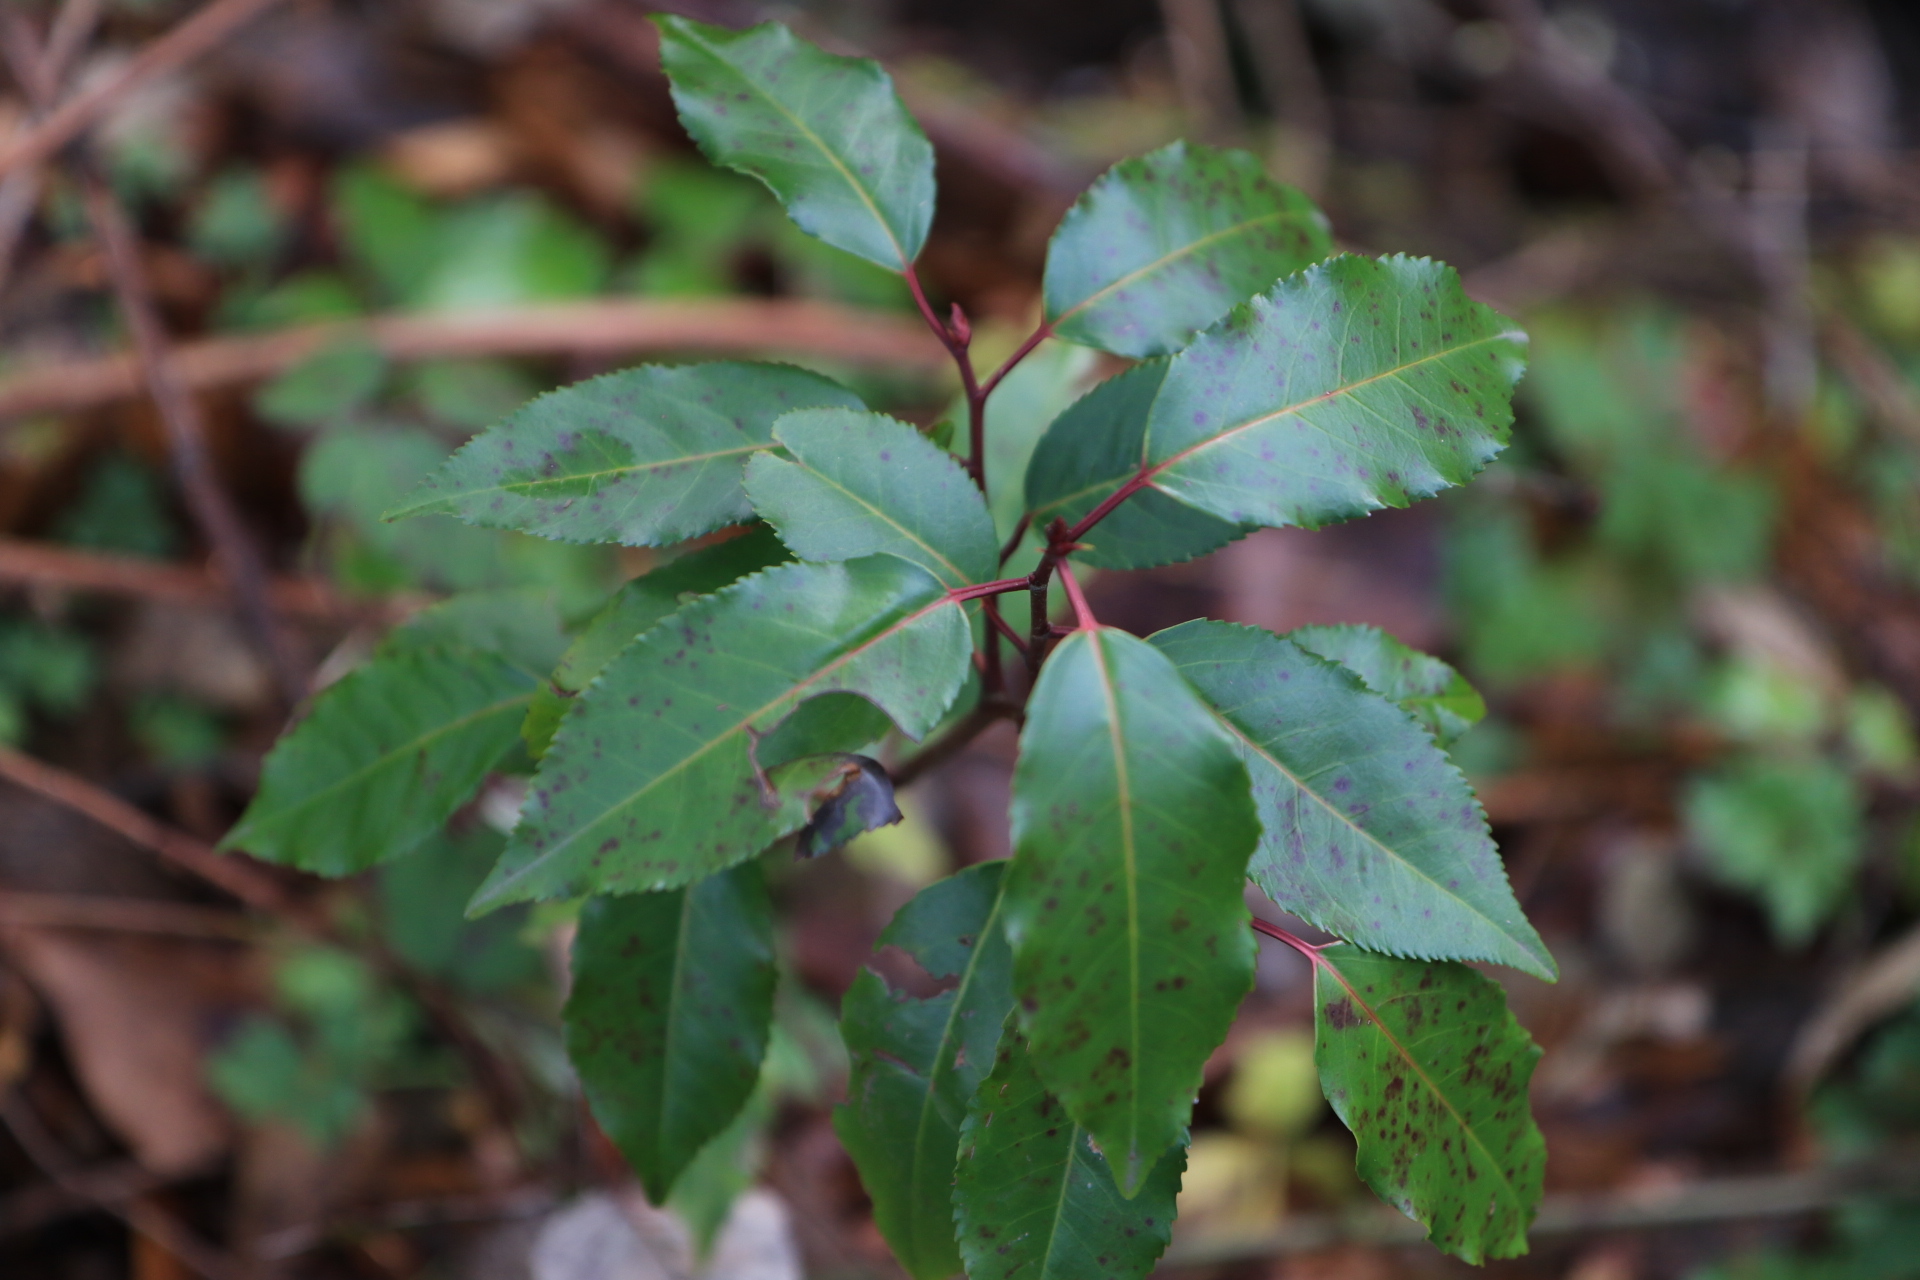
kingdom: Plantae
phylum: Tracheophyta
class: Magnoliopsida
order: Rosales
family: Rosaceae
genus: Prunus
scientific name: Prunus lusitanica
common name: Portugal laurel
